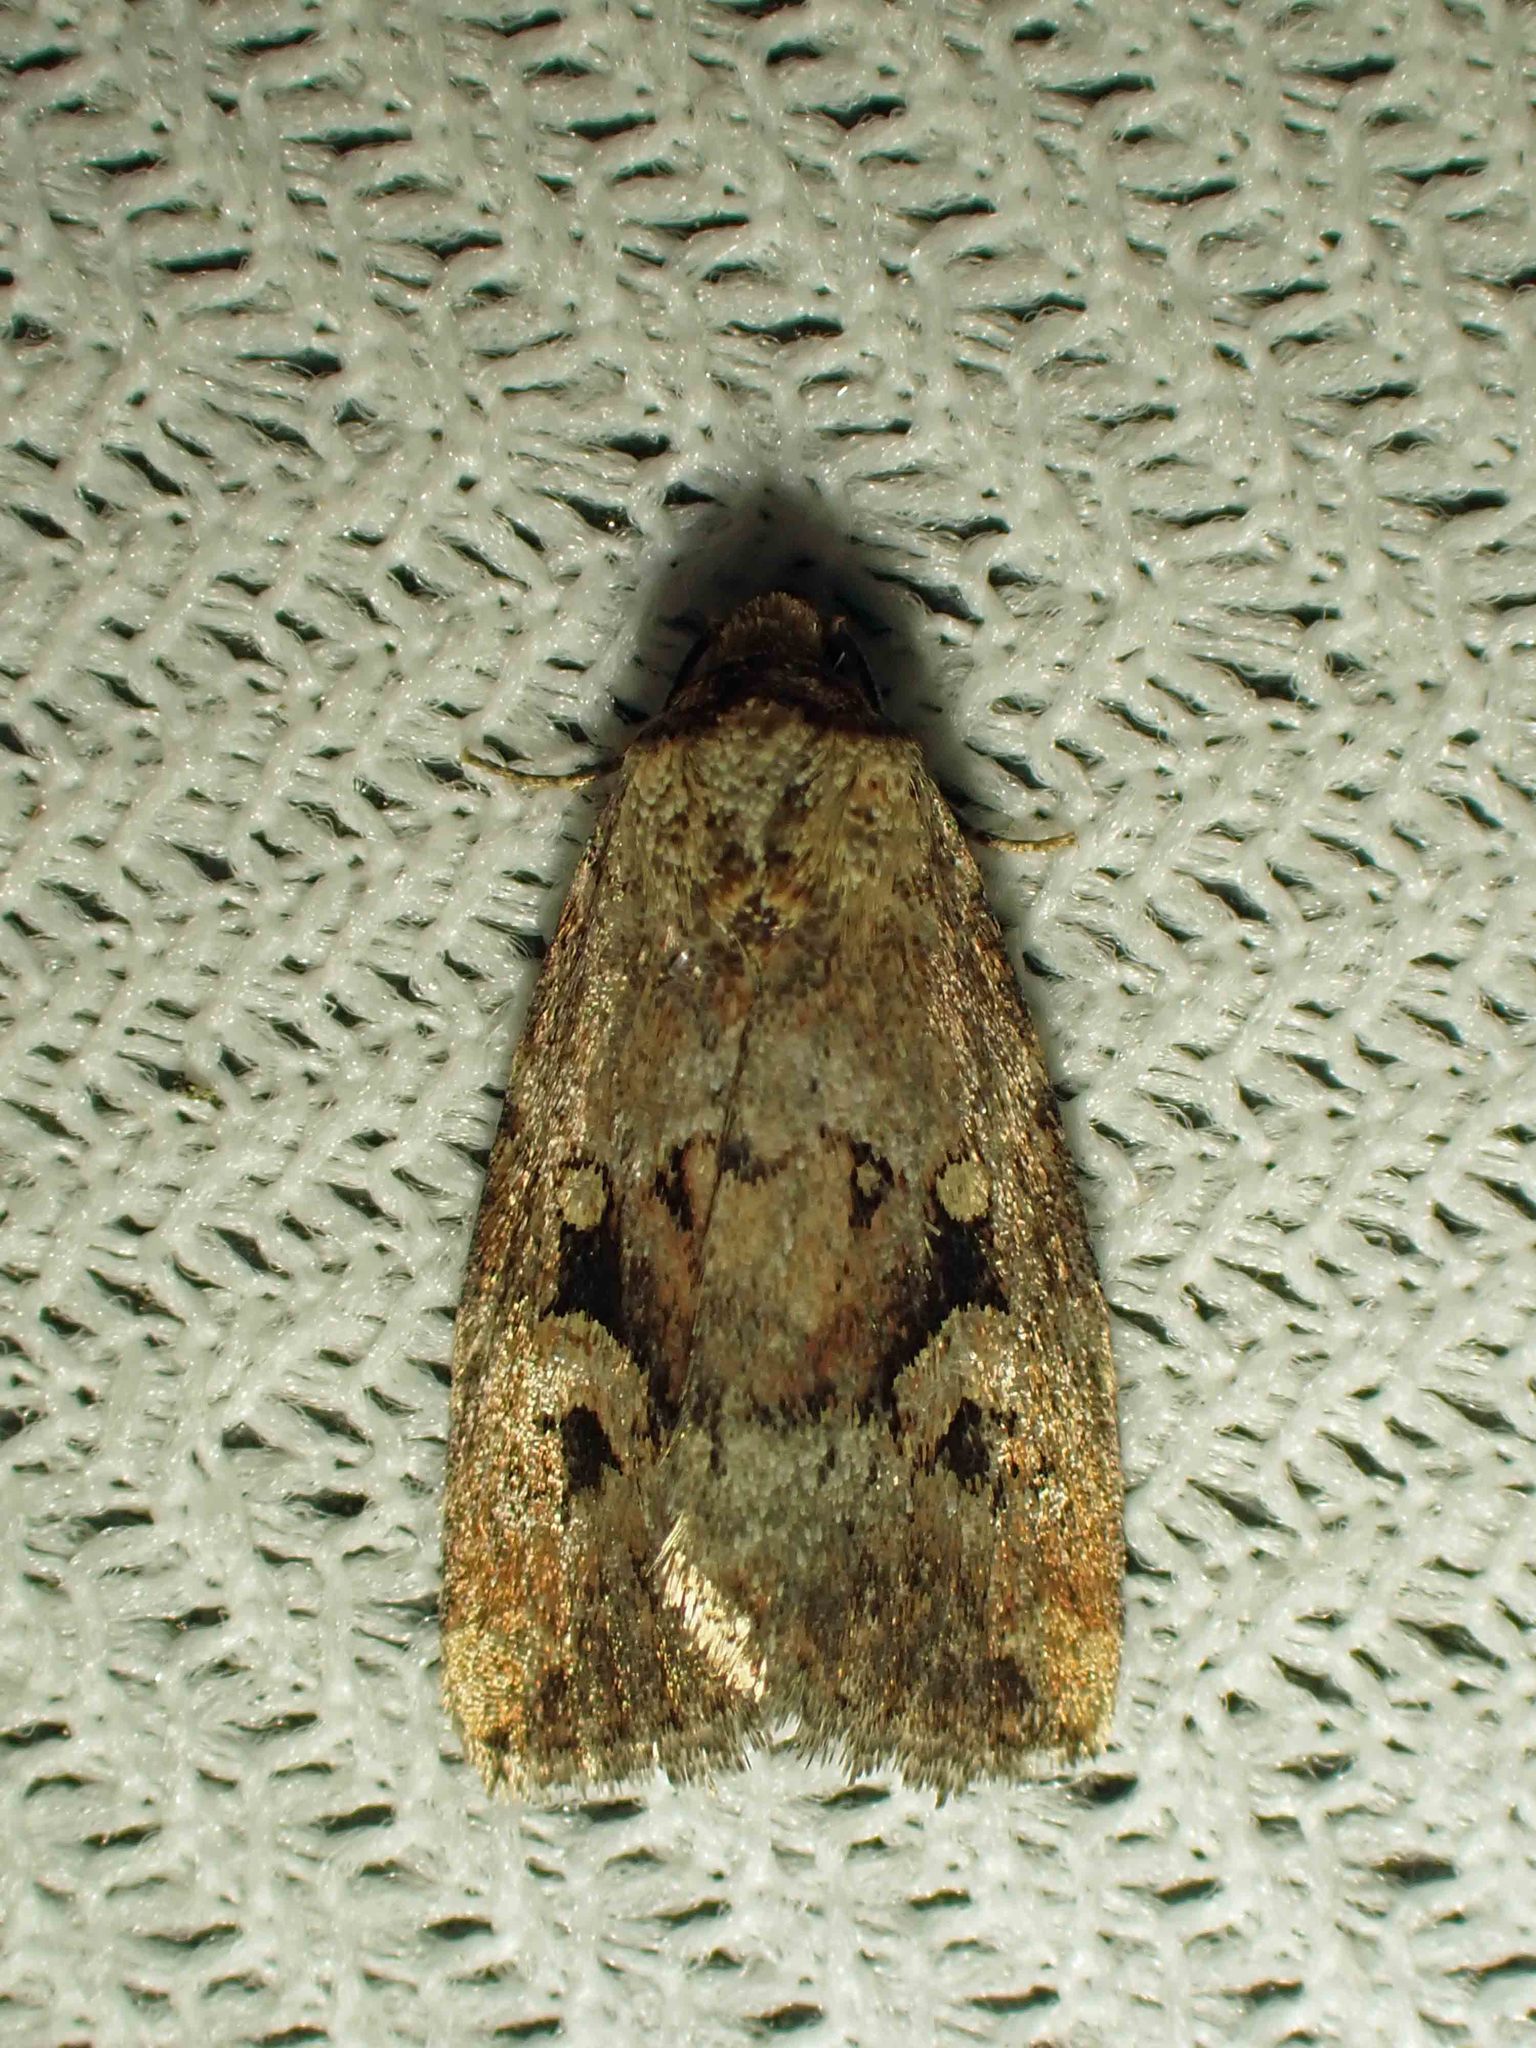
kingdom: Animalia
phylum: Arthropoda
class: Insecta
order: Lepidoptera
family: Noctuidae
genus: Elaphria
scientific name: Elaphria alapallida
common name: Pale-winged midget
